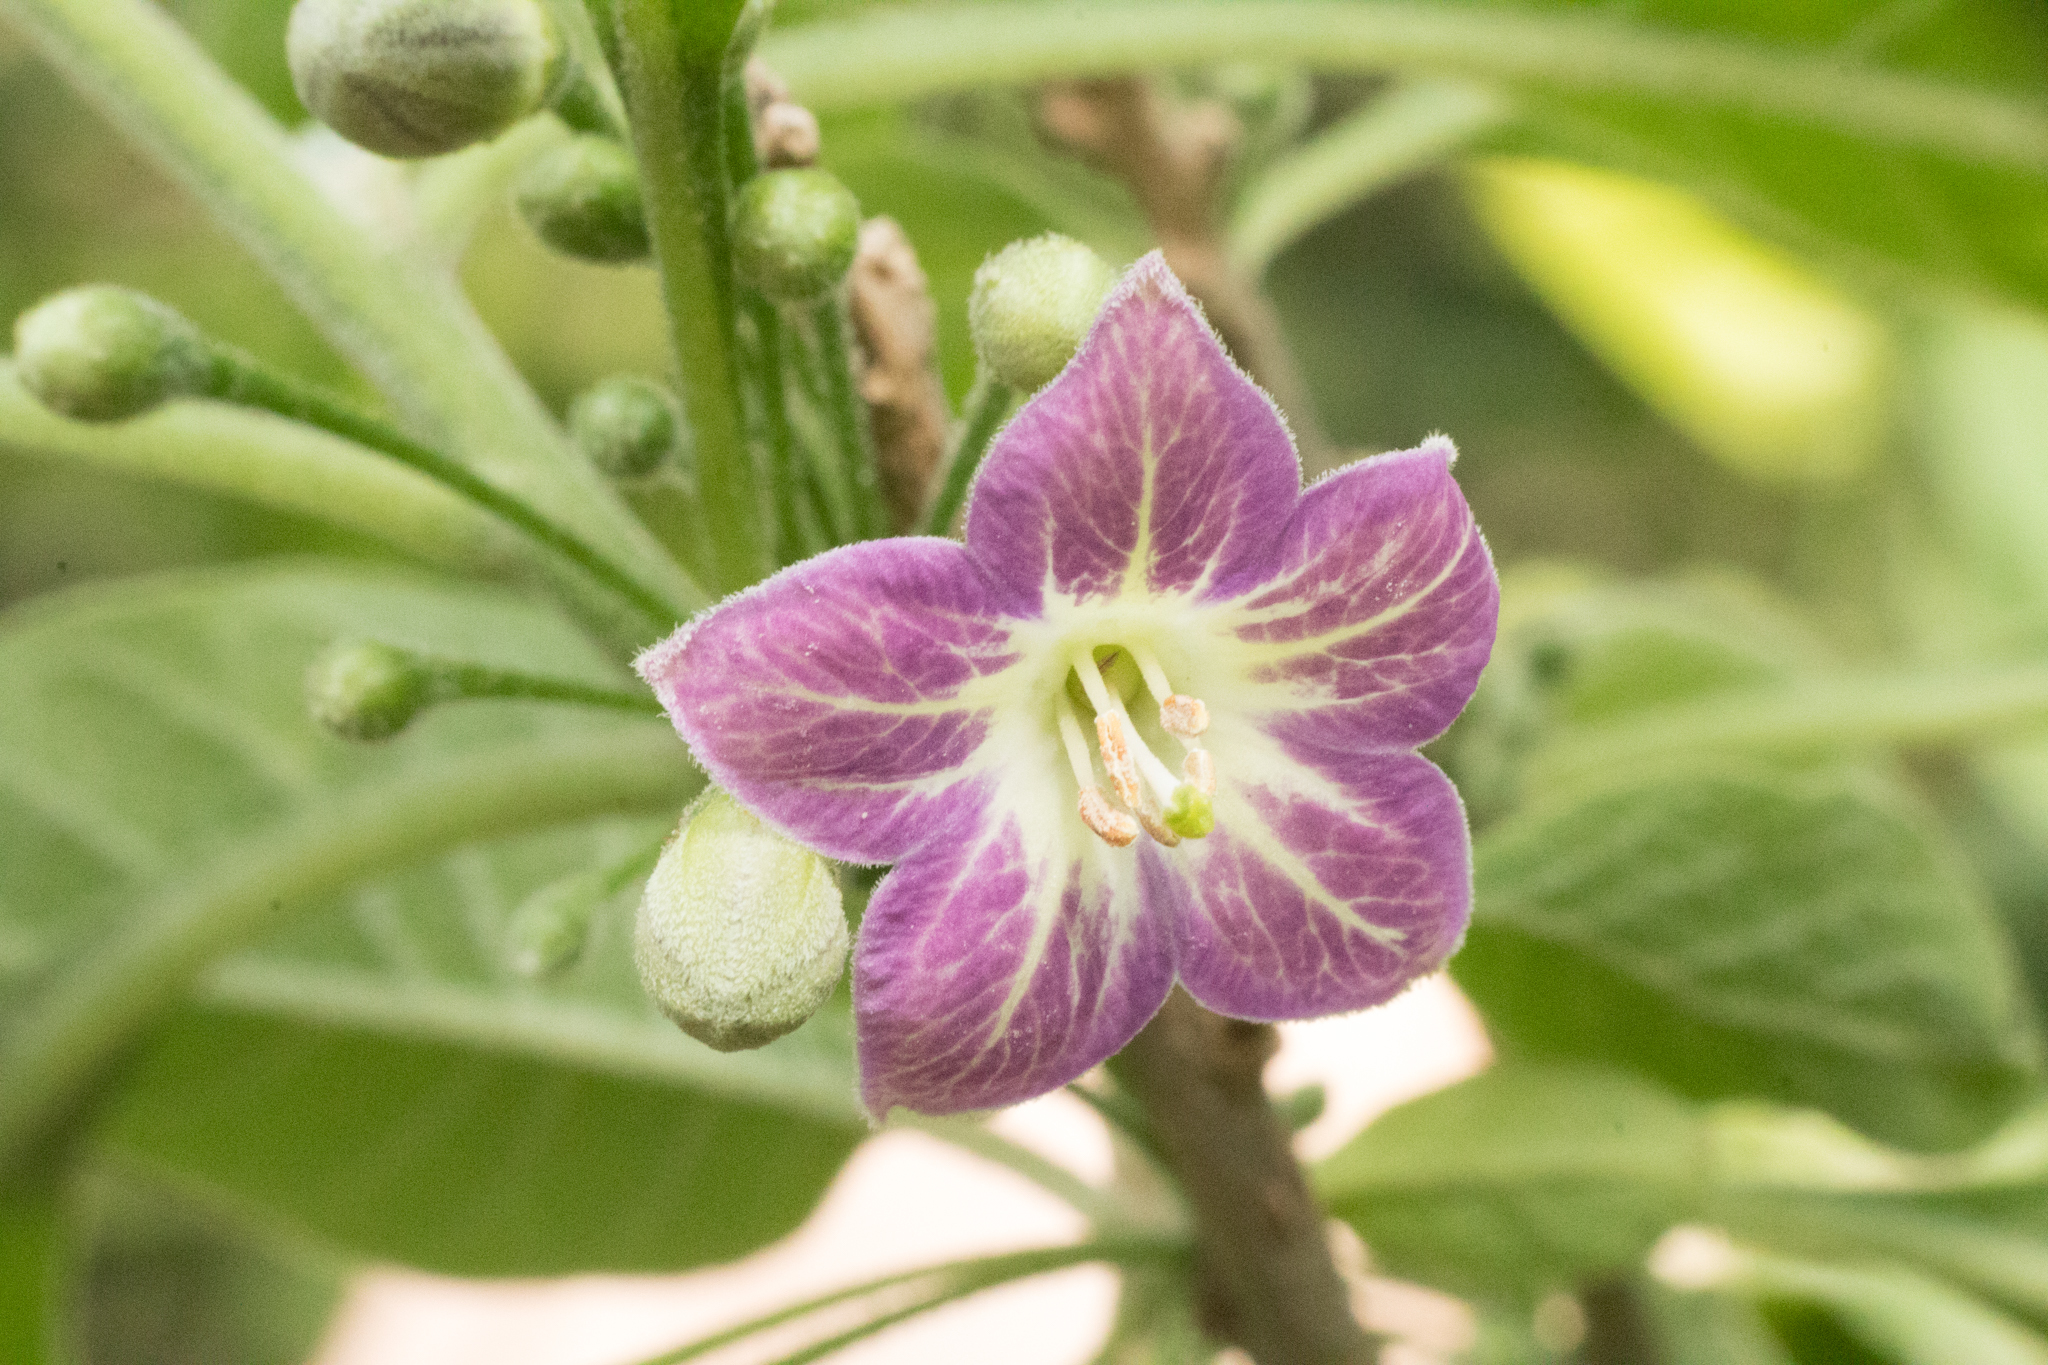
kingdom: Plantae
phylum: Tracheophyta
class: Magnoliopsida
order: Solanales
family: Solanaceae
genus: Vassobia
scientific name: Vassobia breviflora
